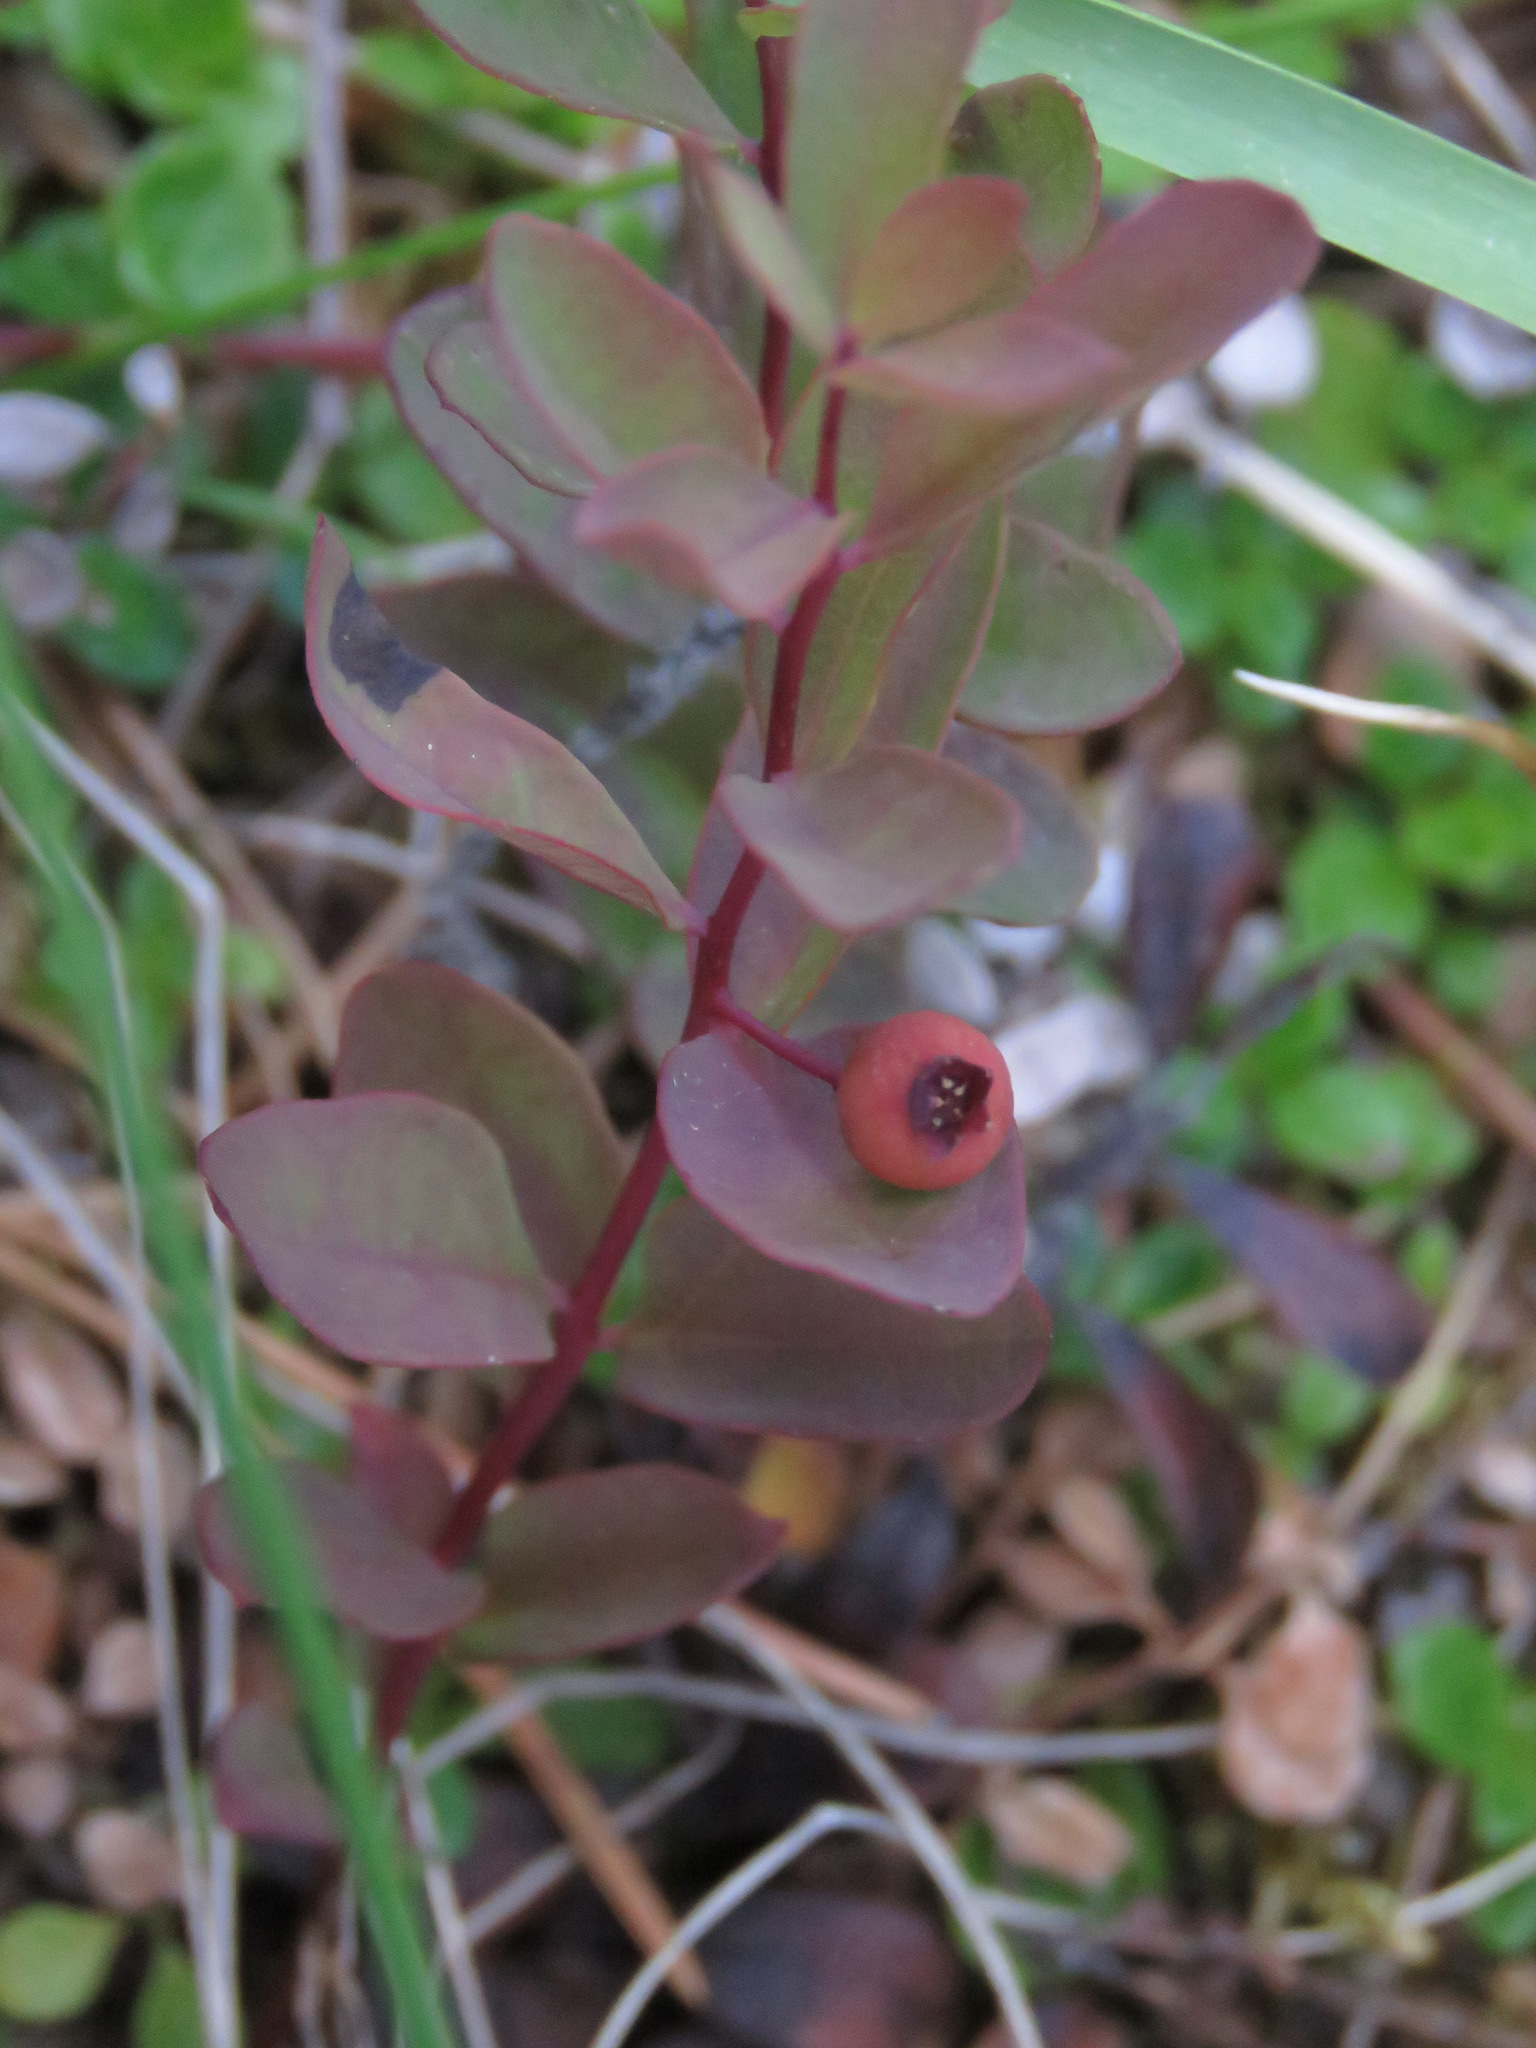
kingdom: Plantae
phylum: Tracheophyta
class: Magnoliopsida
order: Santalales
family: Comandraceae
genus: Geocaulon
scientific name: Geocaulon lividum
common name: Earthberry
